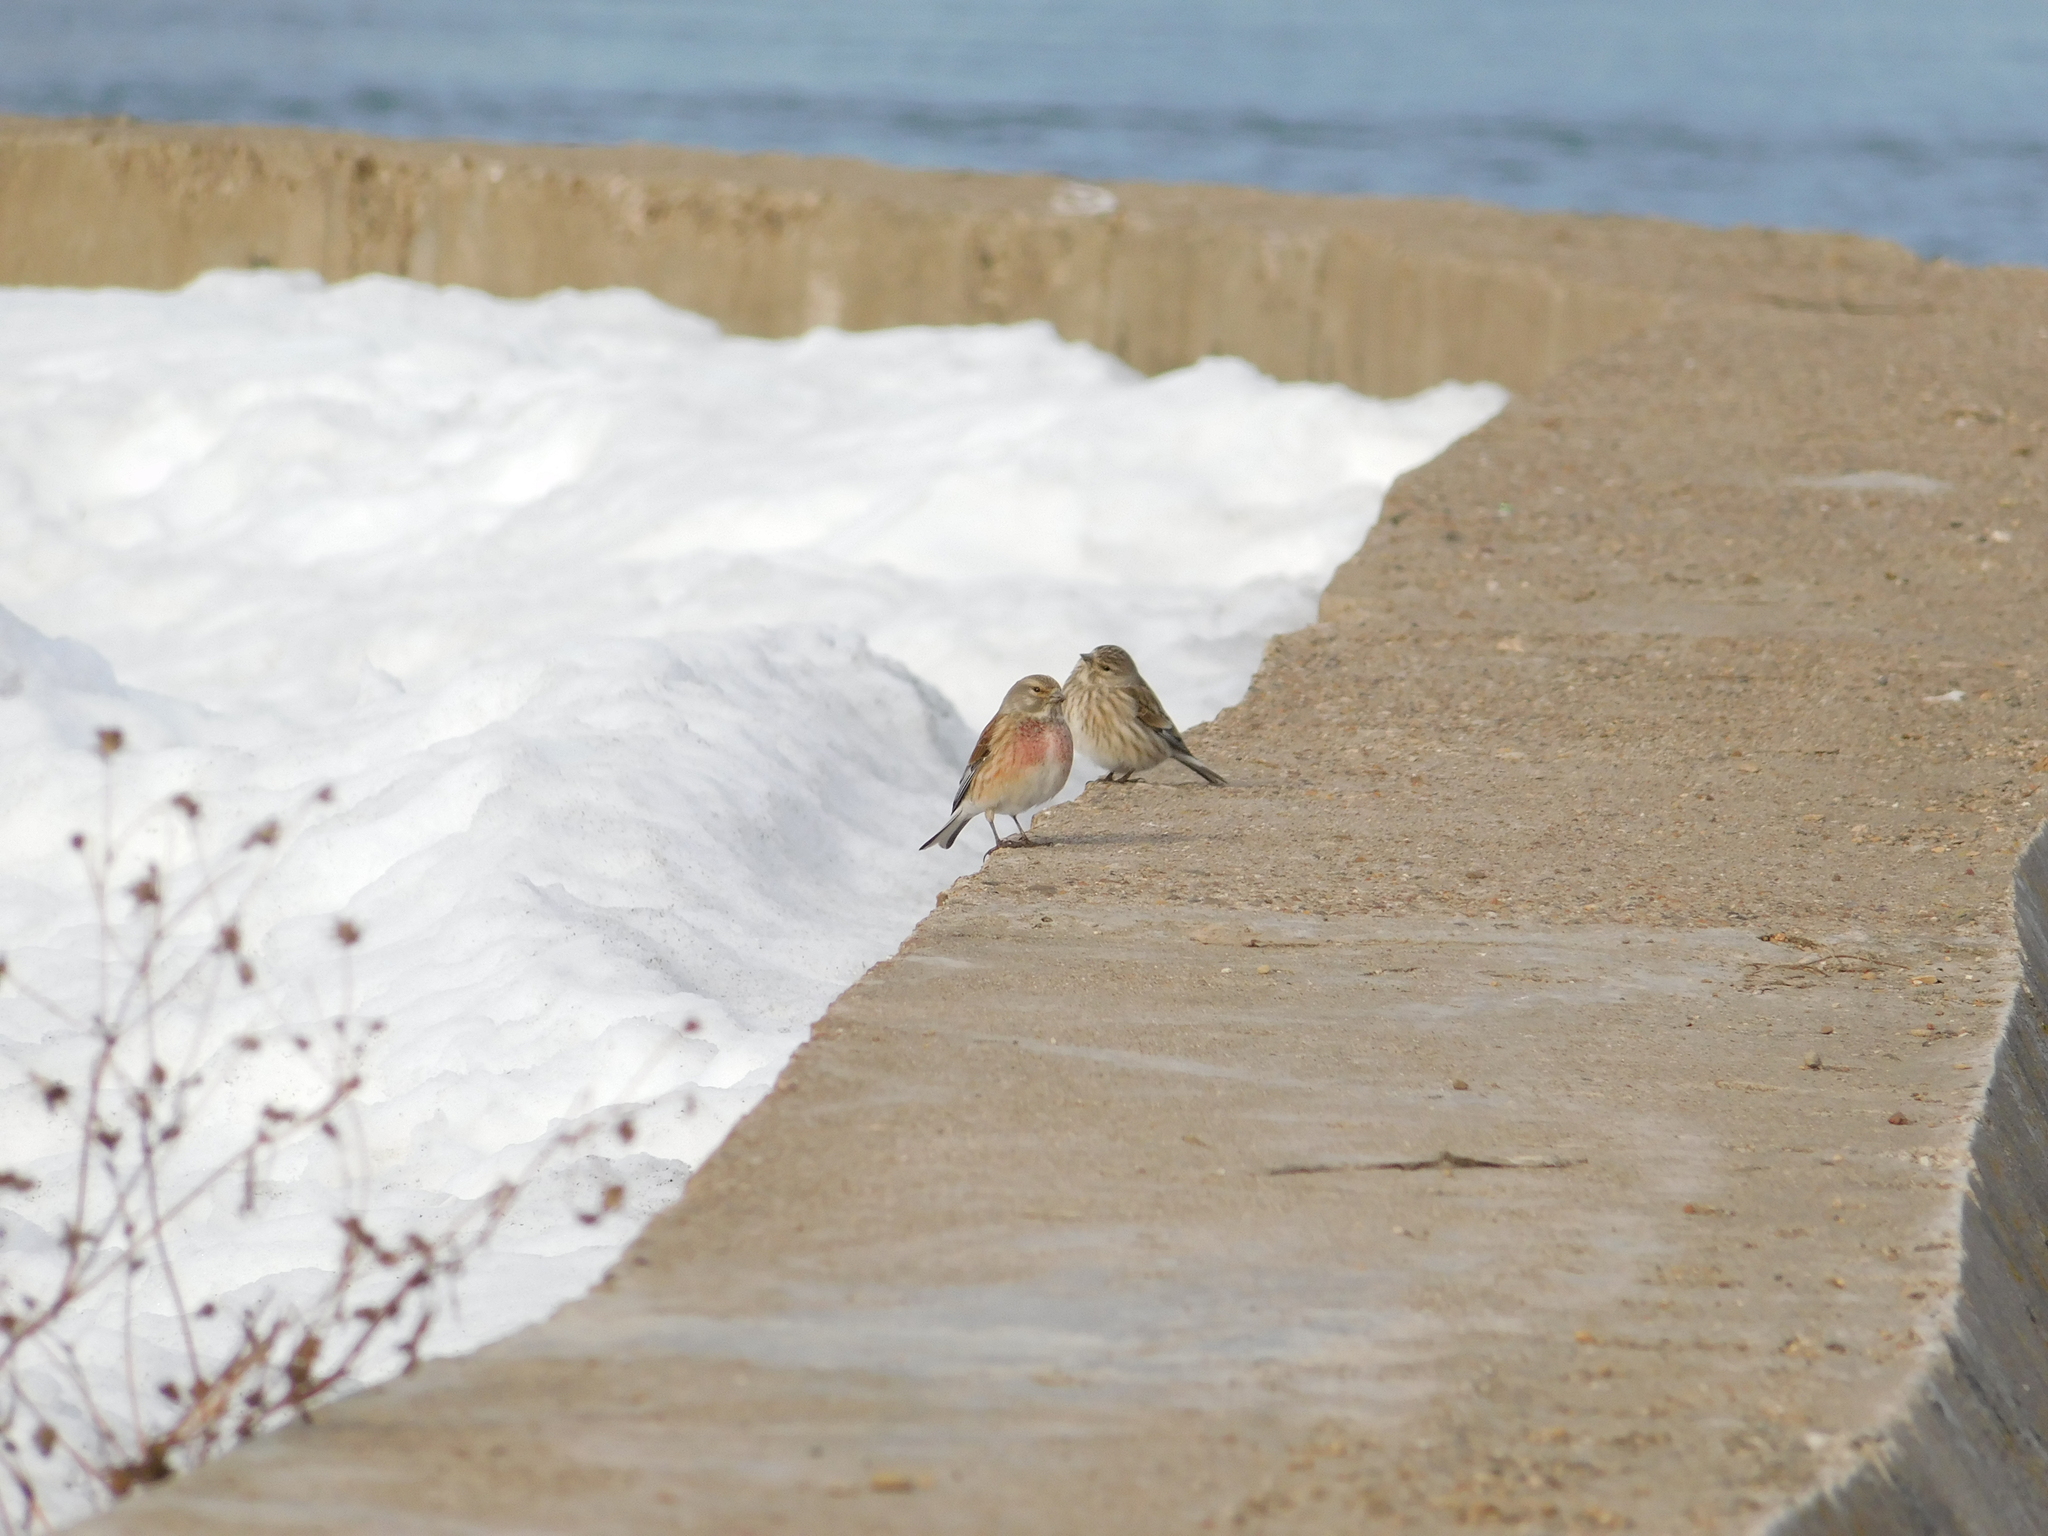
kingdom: Animalia
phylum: Chordata
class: Aves
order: Passeriformes
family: Fringillidae
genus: Linaria
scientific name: Linaria cannabina
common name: Common linnet
